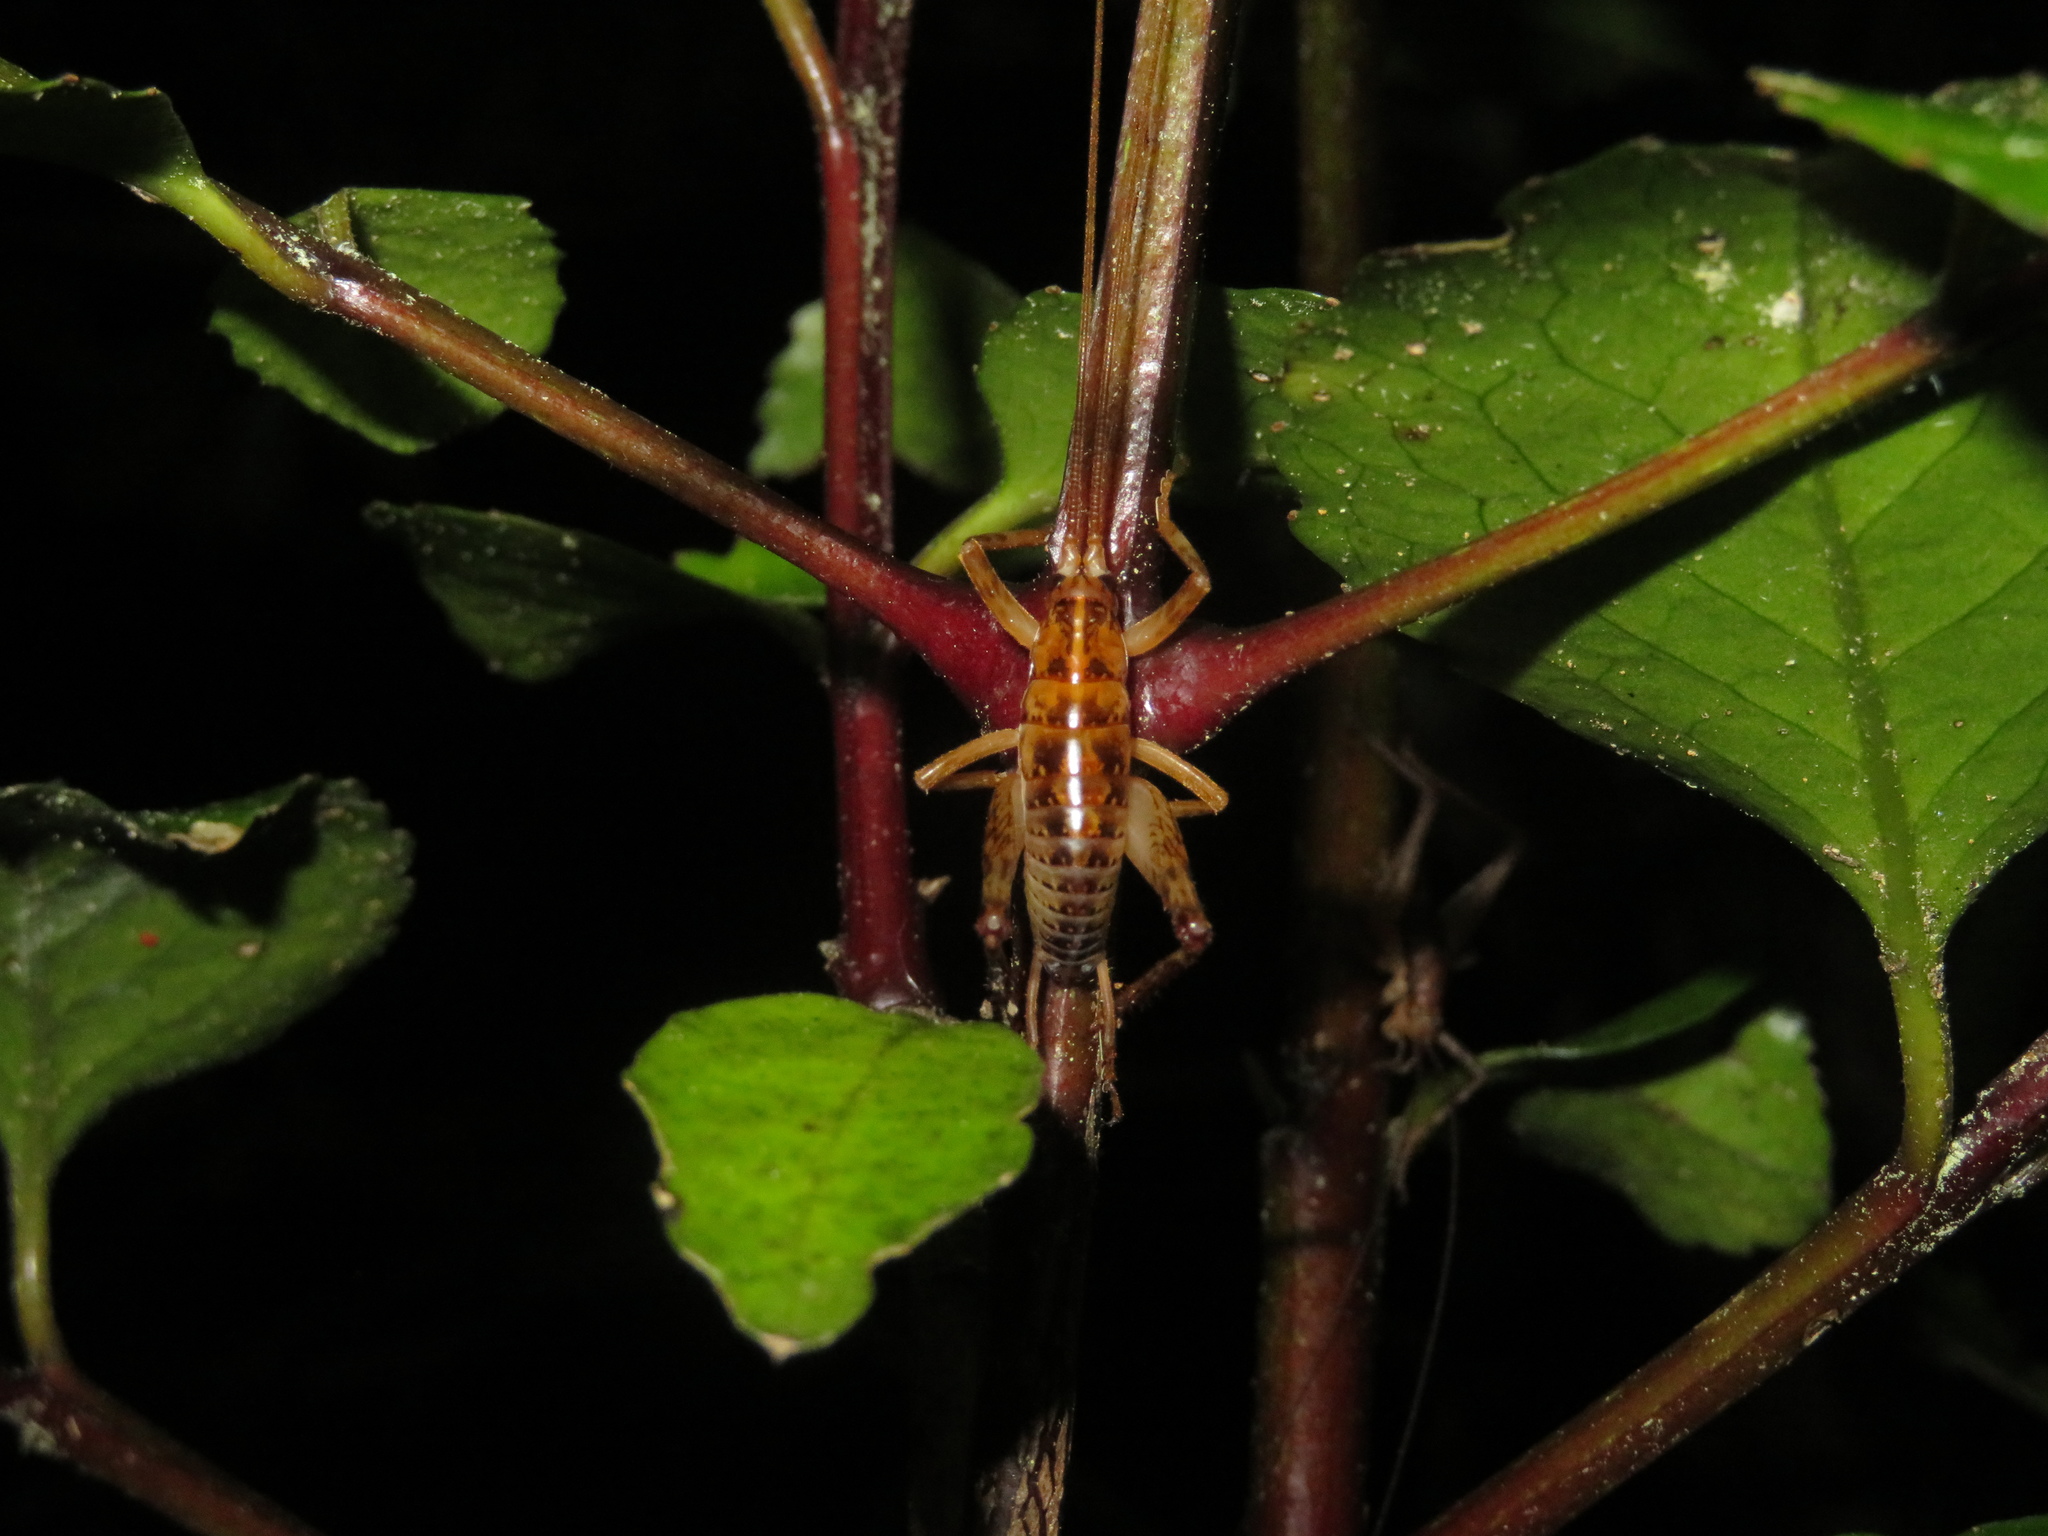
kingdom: Animalia
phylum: Arthropoda
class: Insecta
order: Orthoptera
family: Rhaphidophoridae
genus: Talitropsis
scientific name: Talitropsis sedilloti
